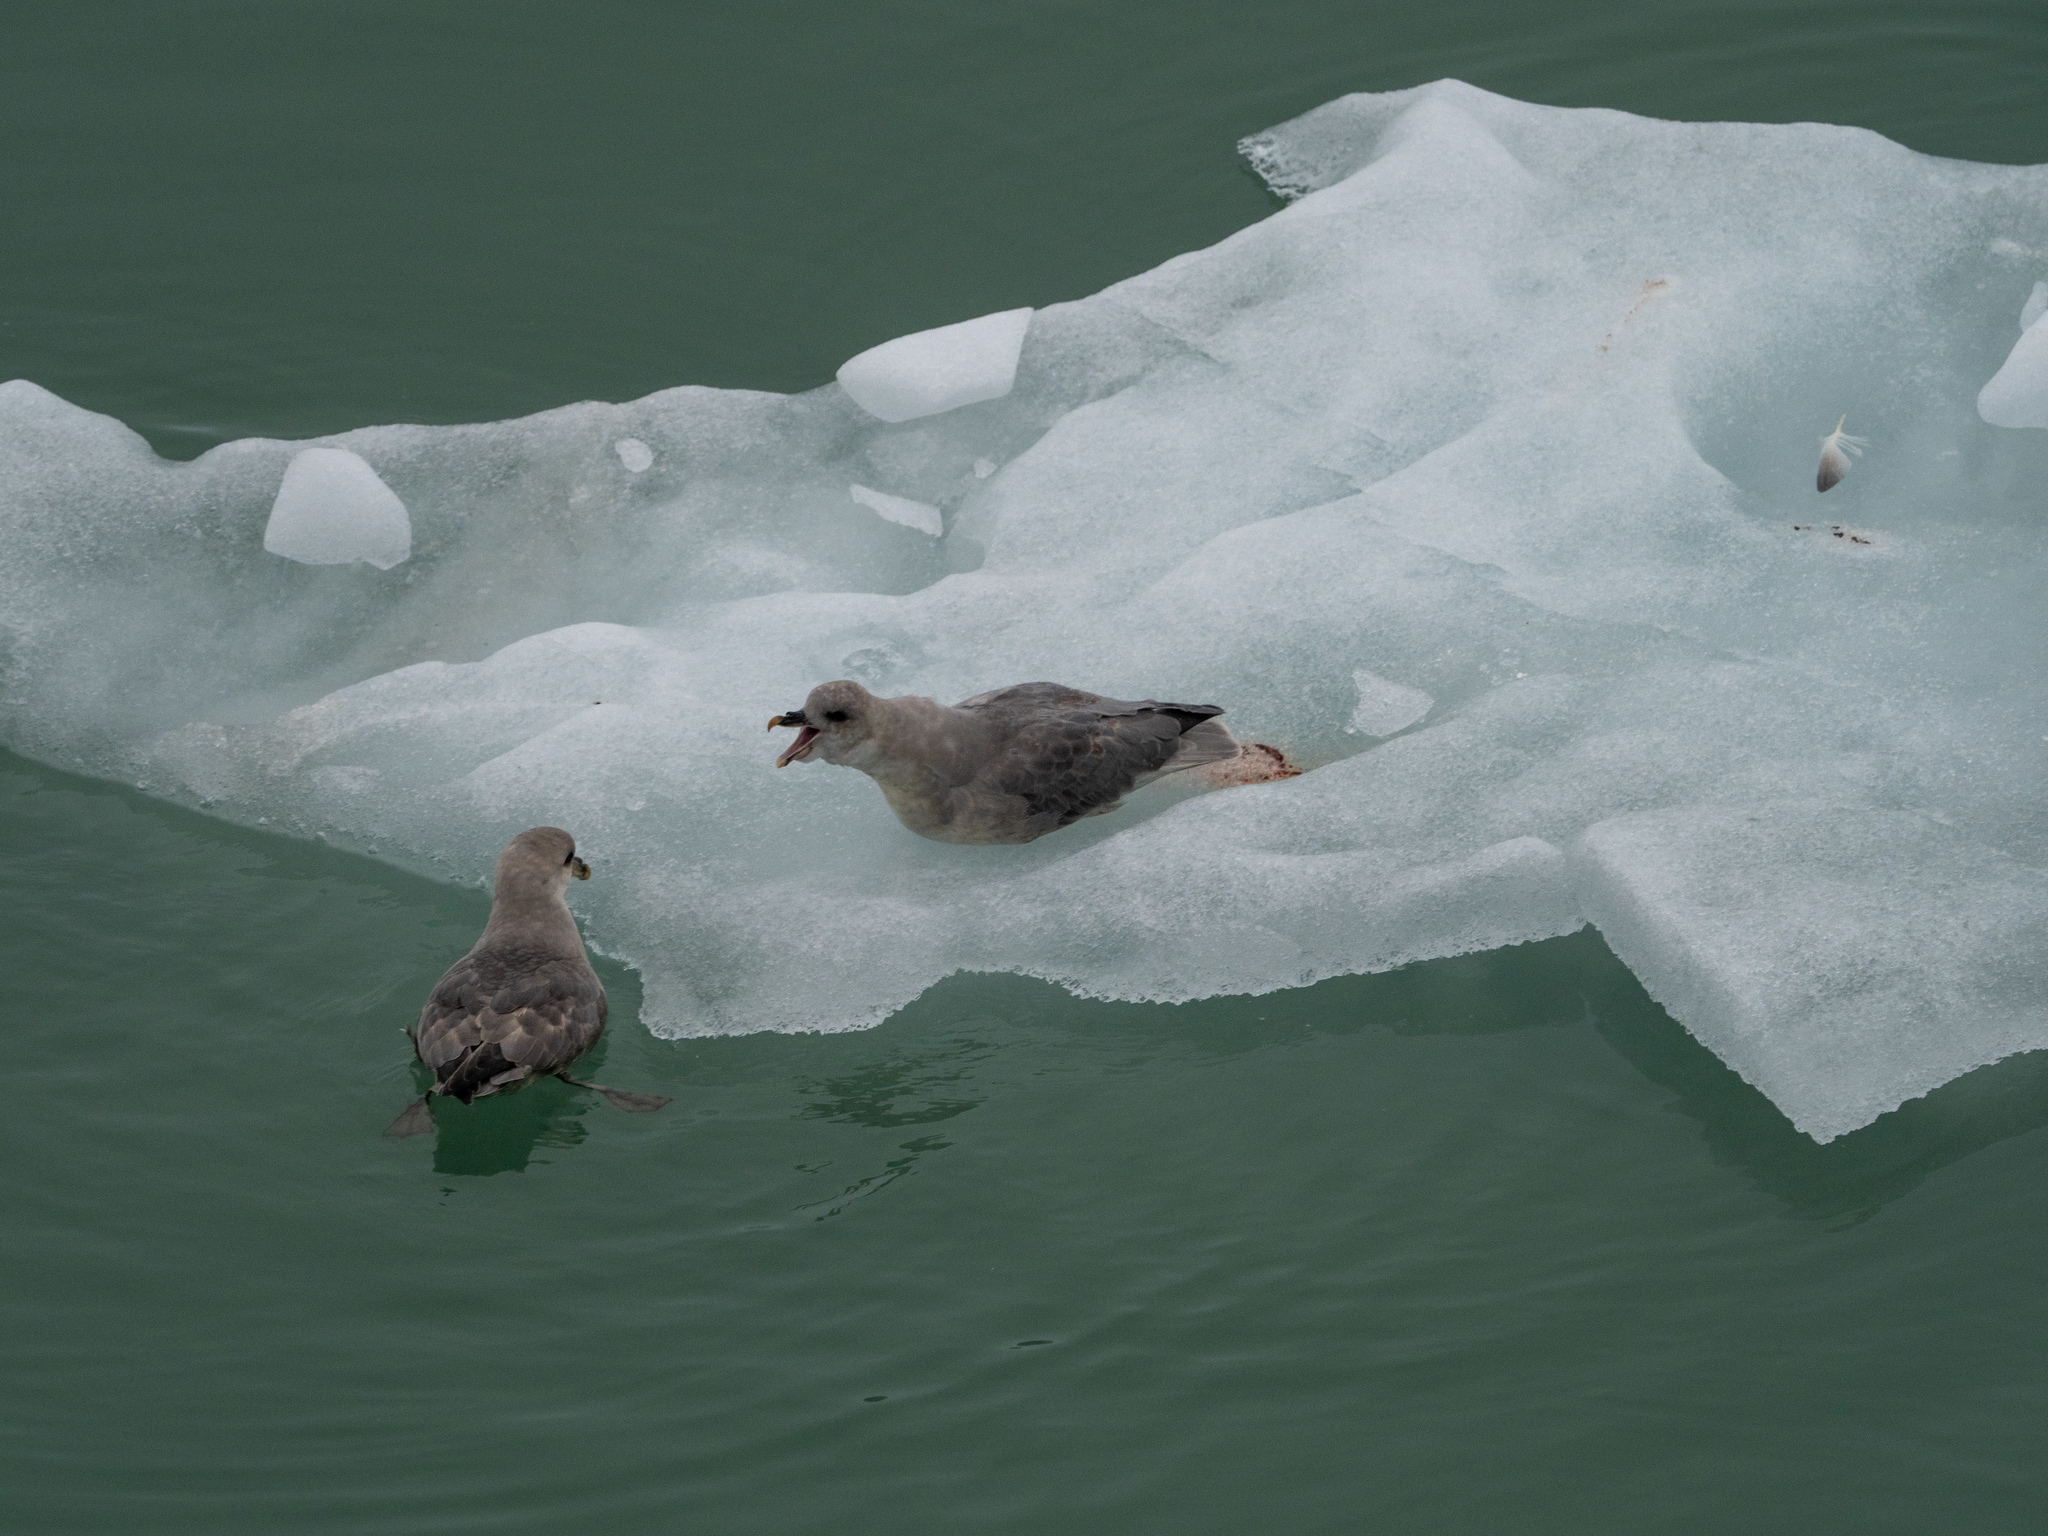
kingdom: Animalia
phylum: Chordata
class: Aves
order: Procellariiformes
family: Procellariidae
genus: Fulmarus
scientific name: Fulmarus glacialis
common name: Northern fulmar
